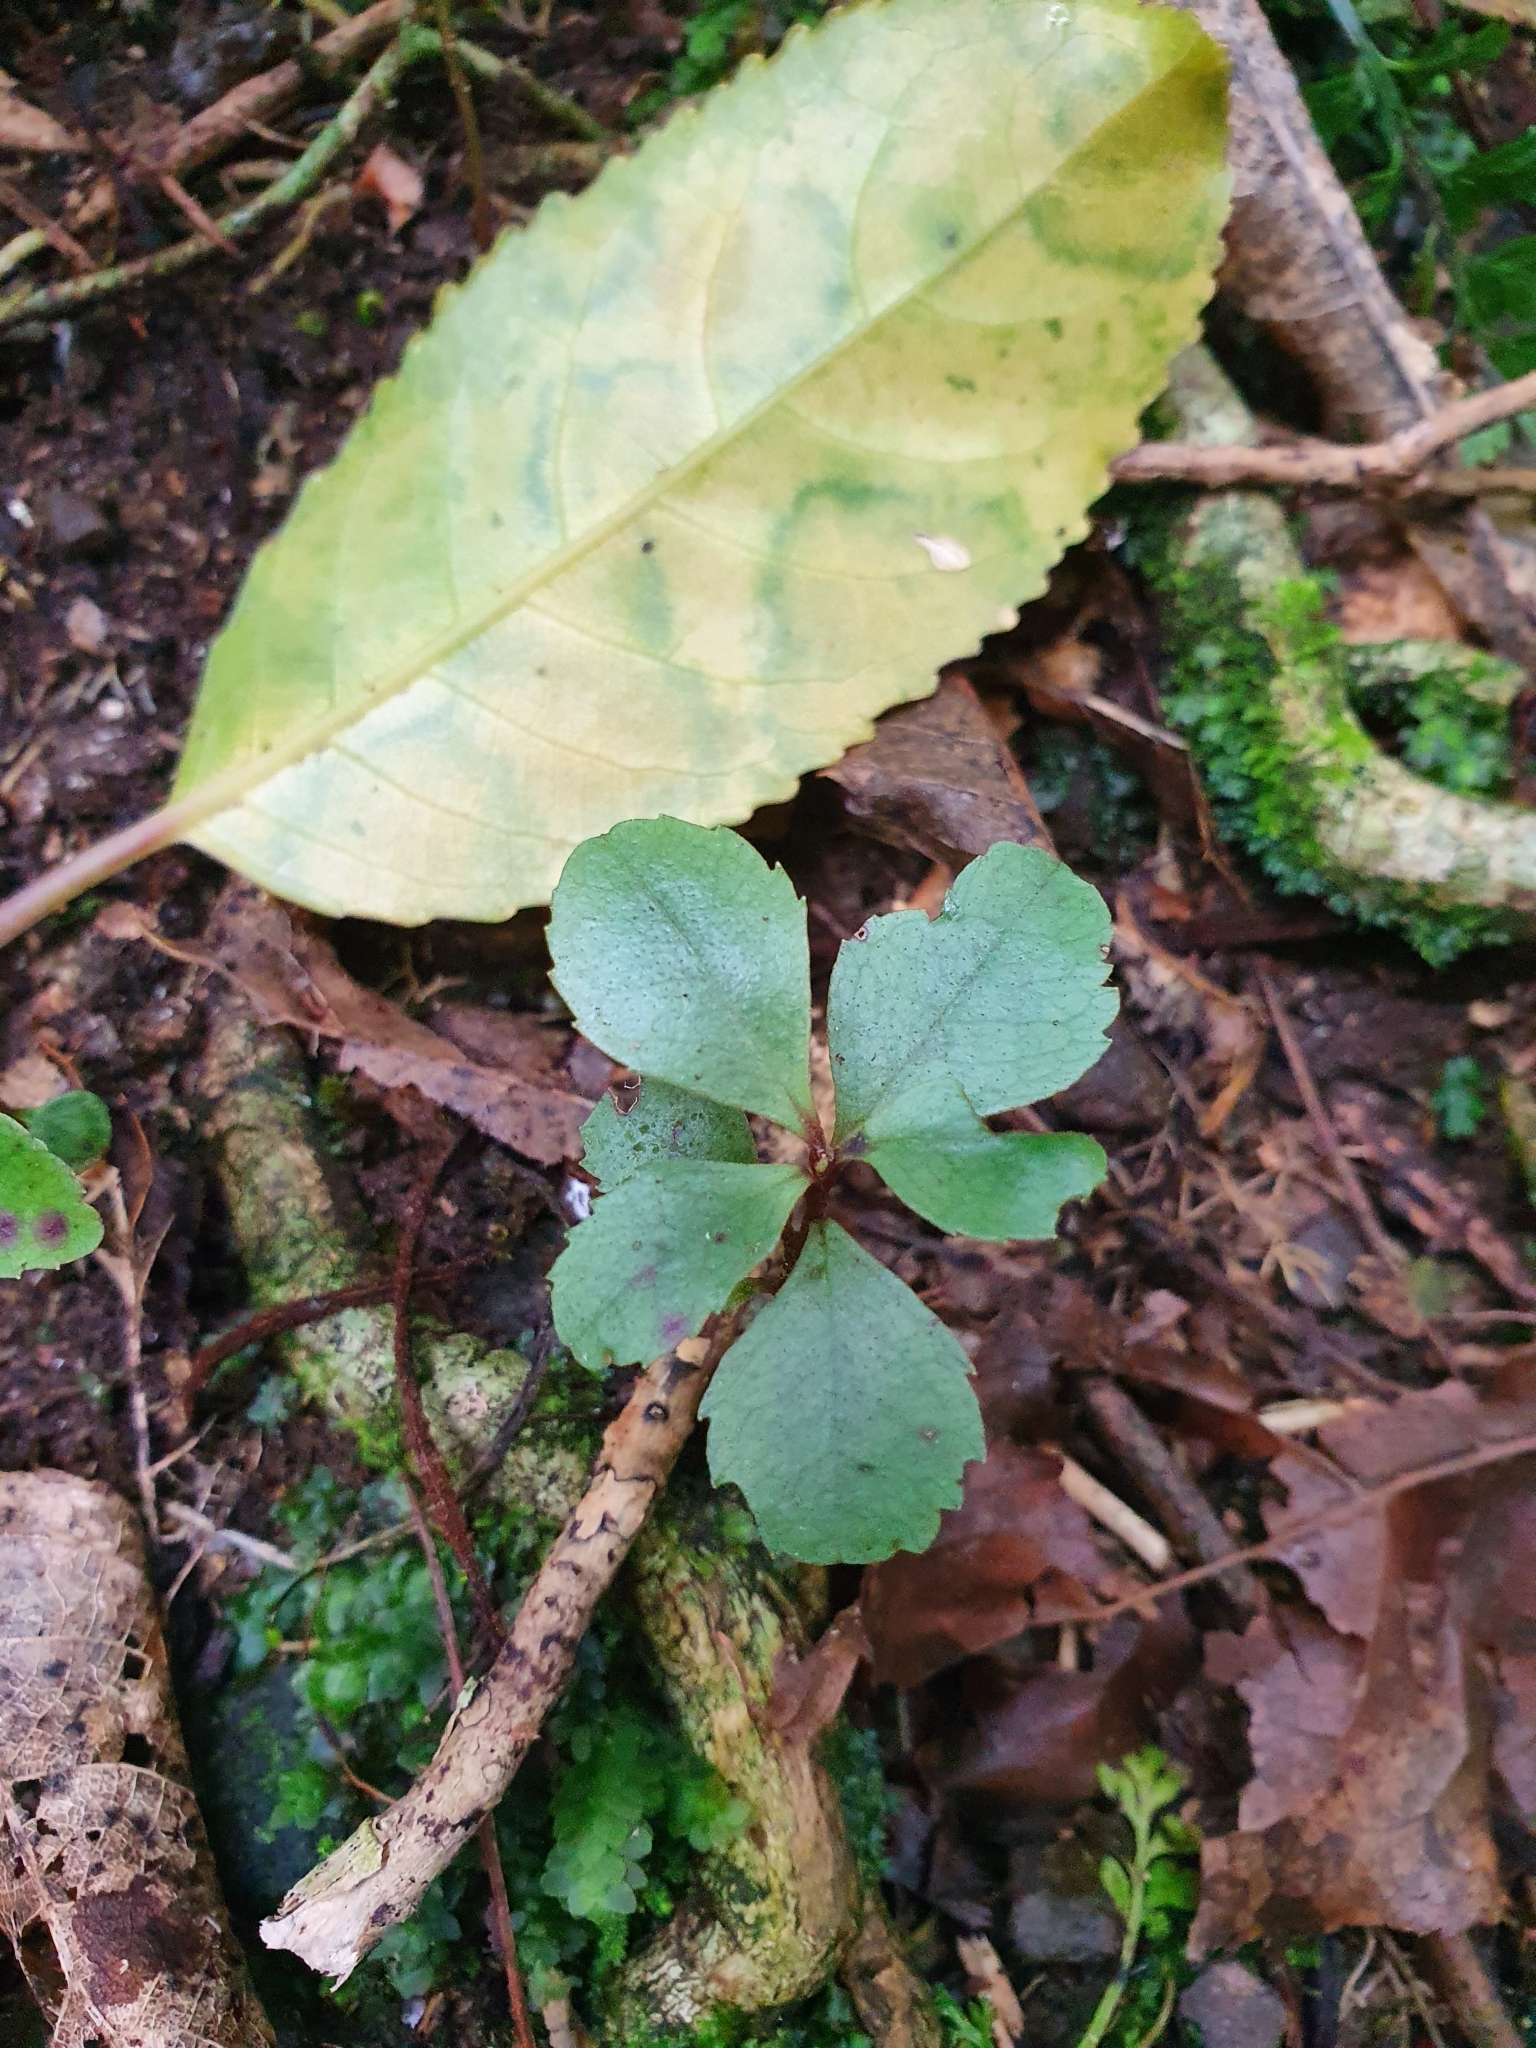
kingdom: Plantae
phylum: Tracheophyta
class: Magnoliopsida
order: Ericales
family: Primulaceae
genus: Myrsine
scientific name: Myrsine australis
